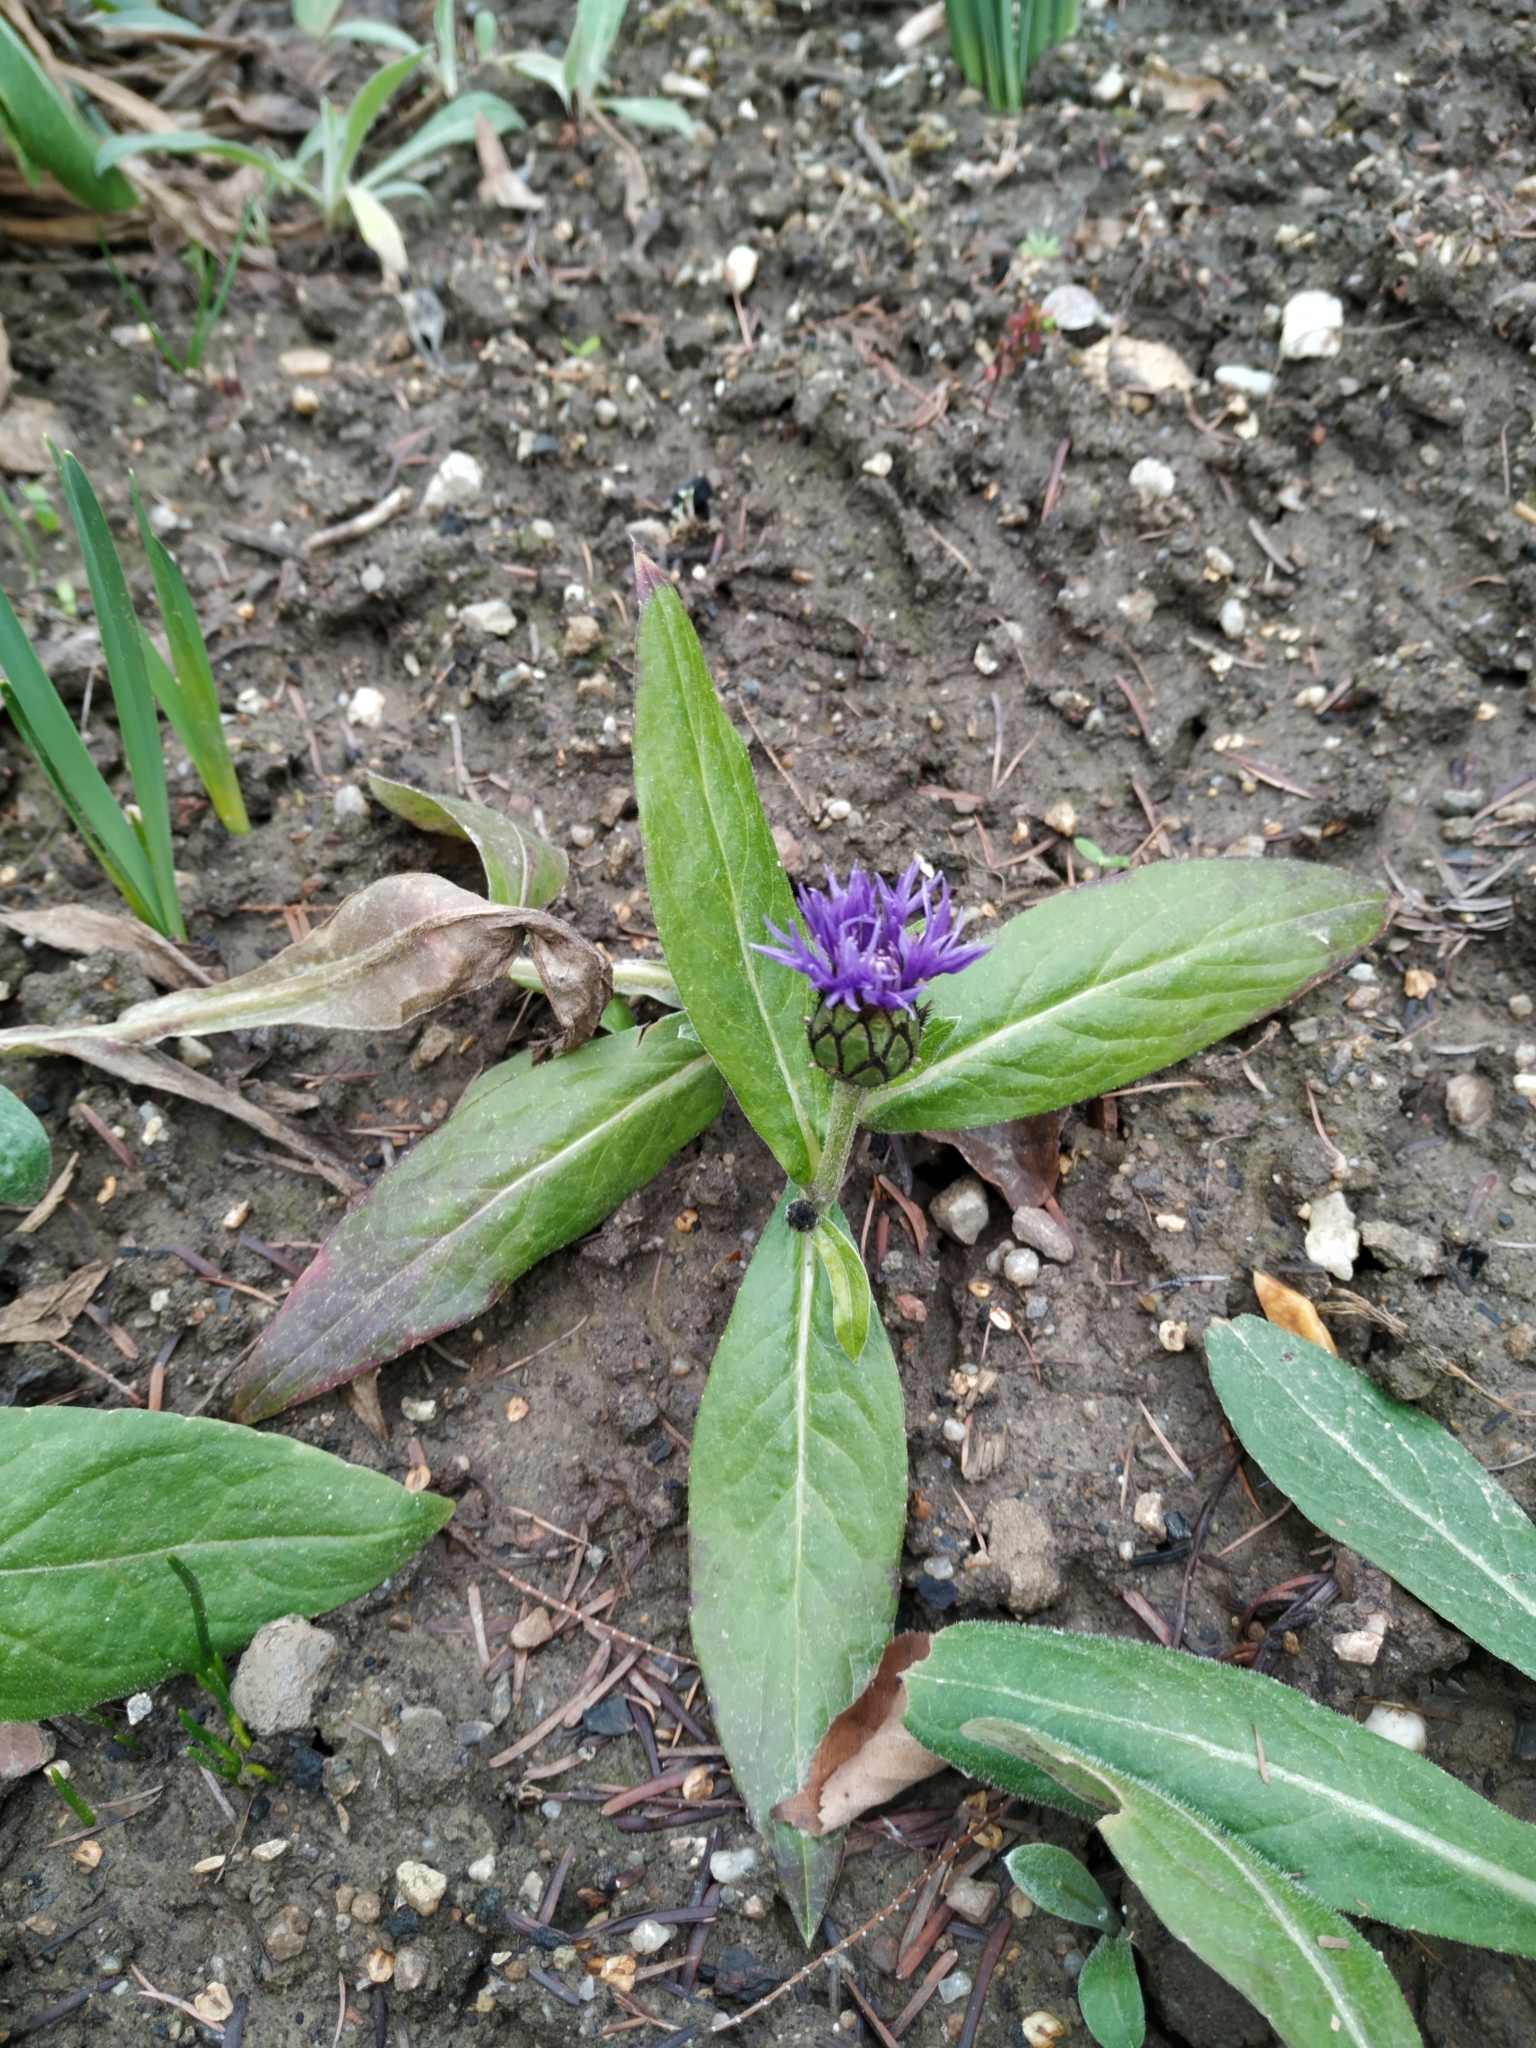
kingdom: Plantae
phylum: Tracheophyta
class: Magnoliopsida
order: Asterales
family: Asteraceae
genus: Centaurea
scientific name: Centaurea montana
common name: Perennial cornflower
